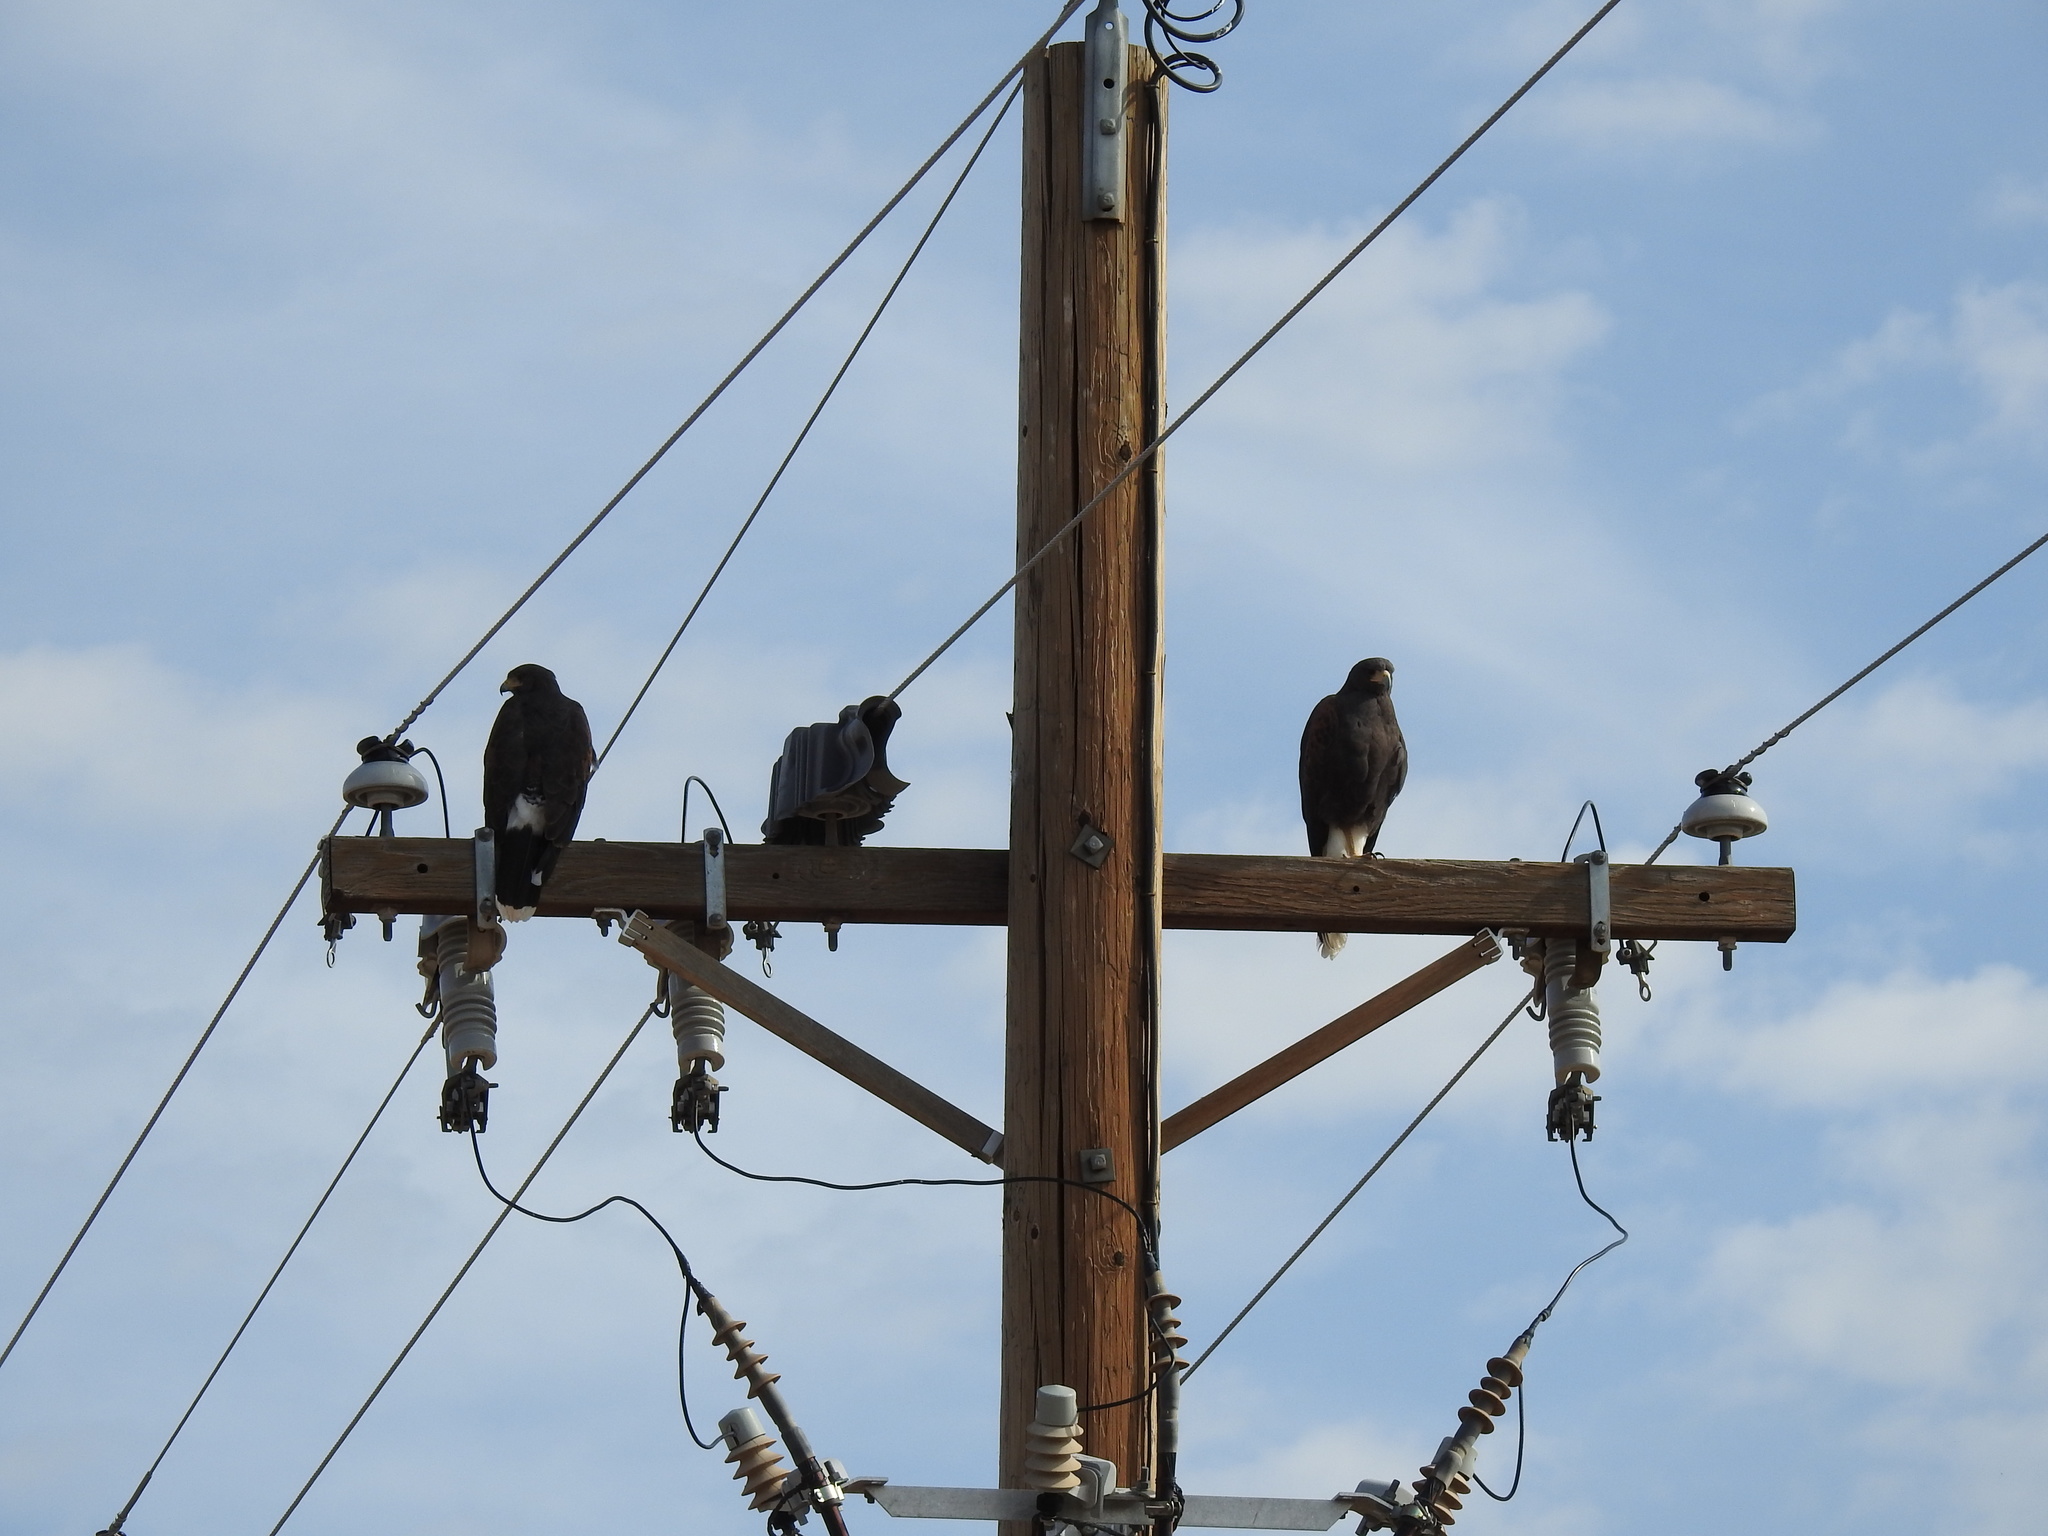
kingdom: Animalia
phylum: Chordata
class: Aves
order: Accipitriformes
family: Accipitridae
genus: Parabuteo
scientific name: Parabuteo unicinctus
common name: Harris's hawk
